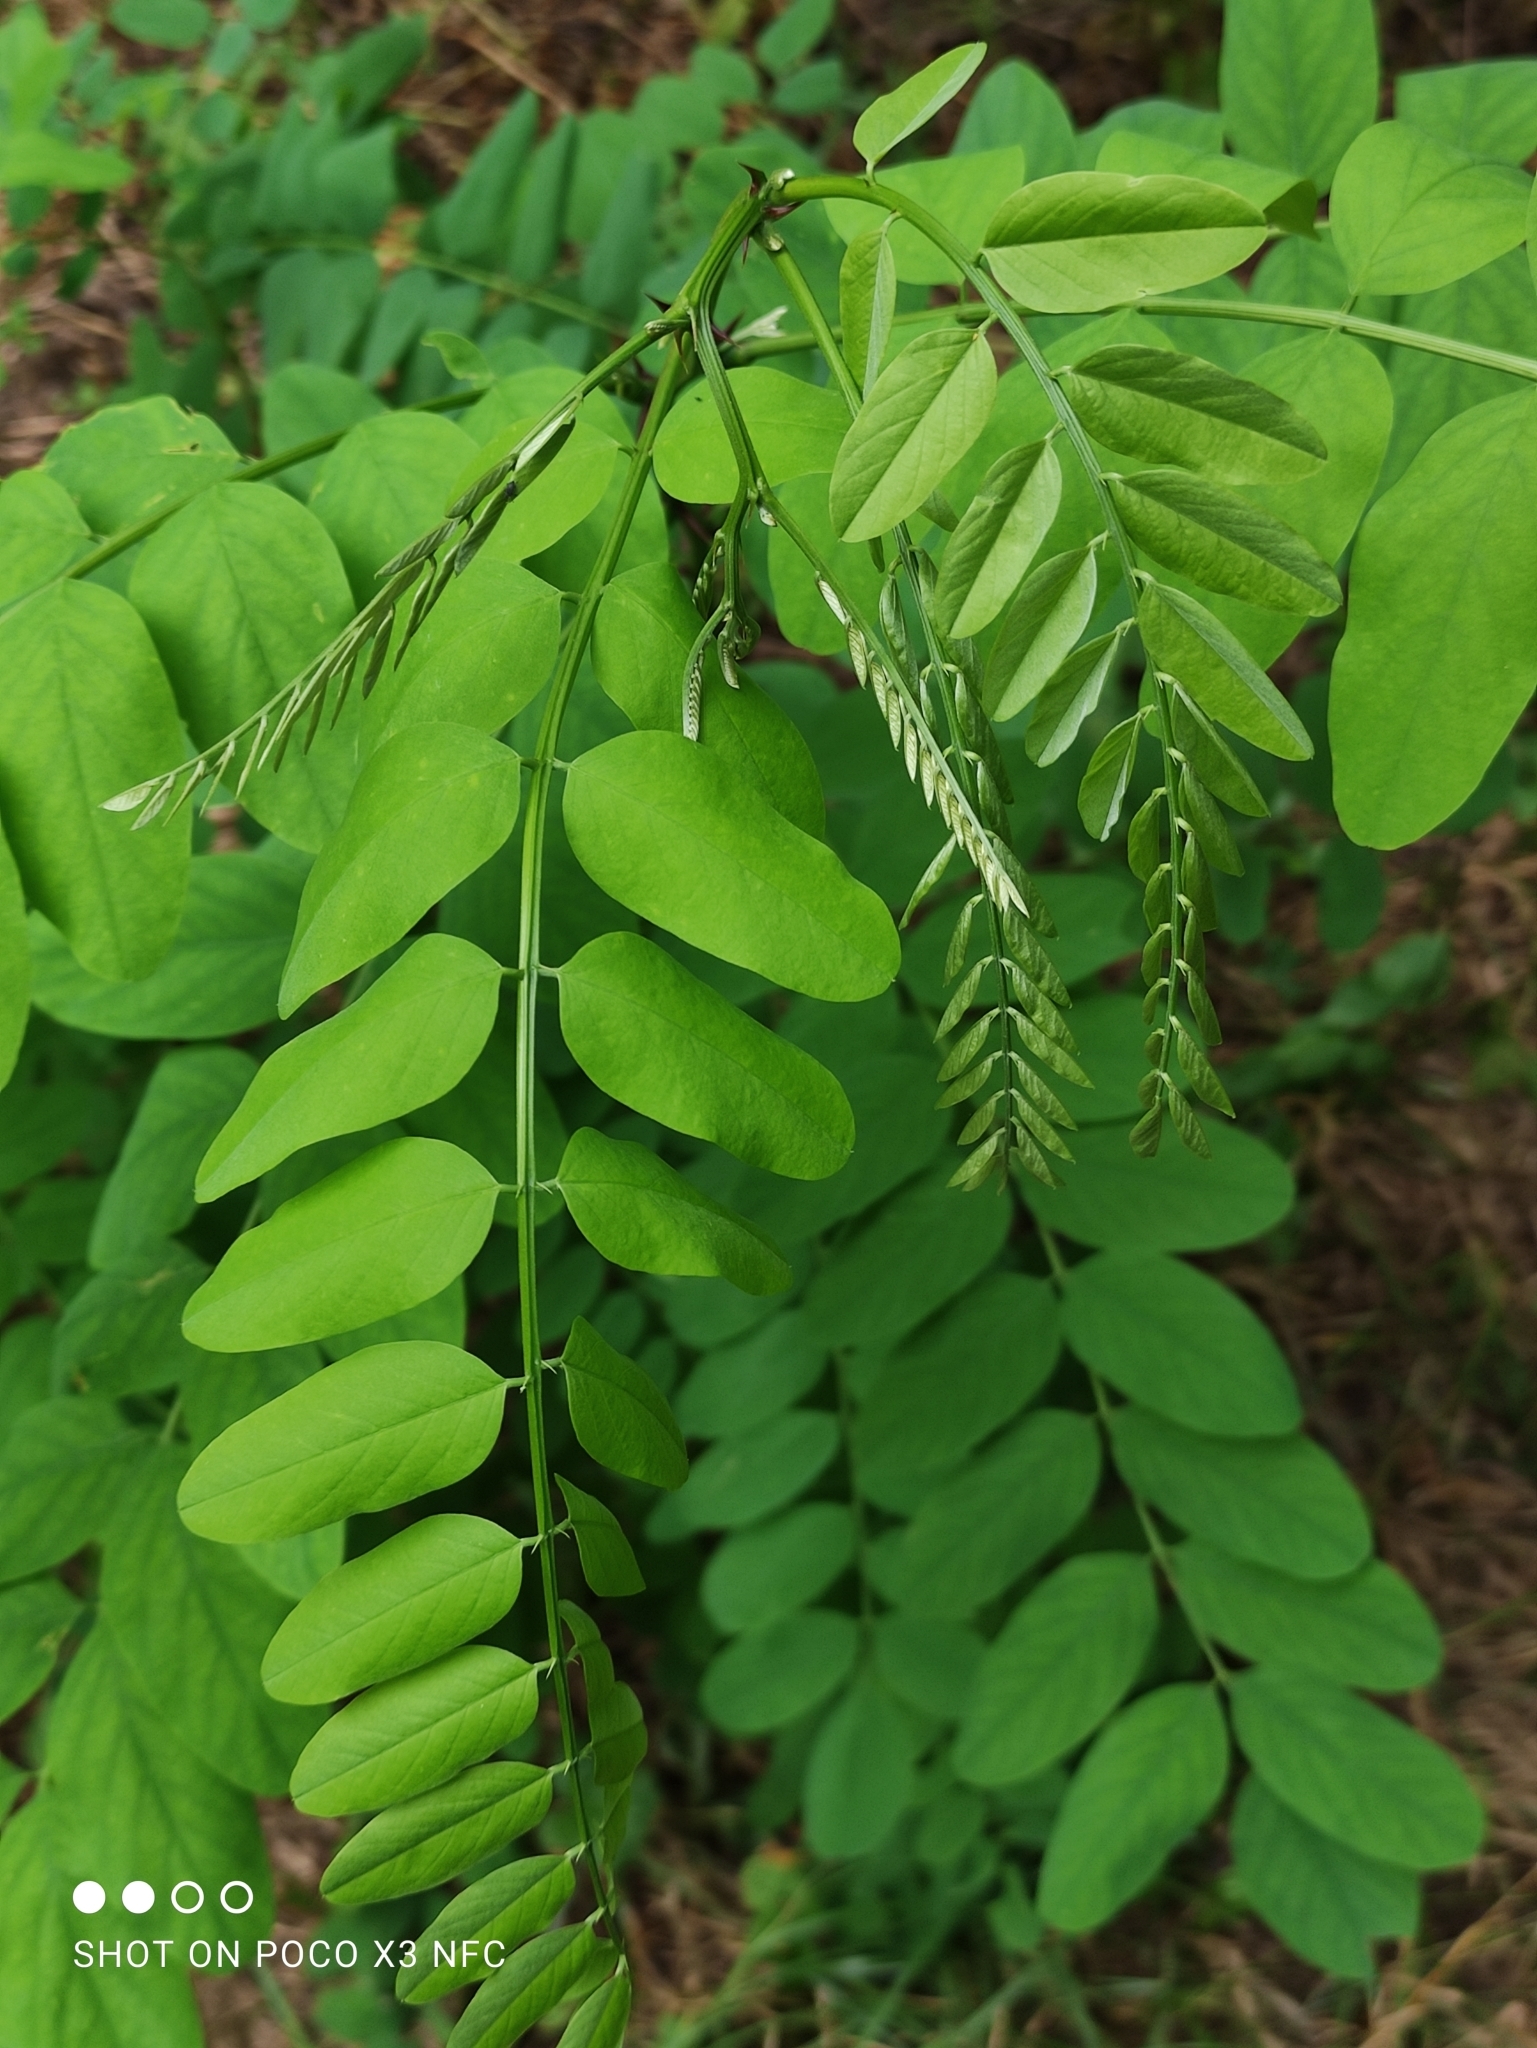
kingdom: Plantae
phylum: Tracheophyta
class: Magnoliopsida
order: Fabales
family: Fabaceae
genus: Robinia
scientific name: Robinia pseudoacacia
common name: Black locust
